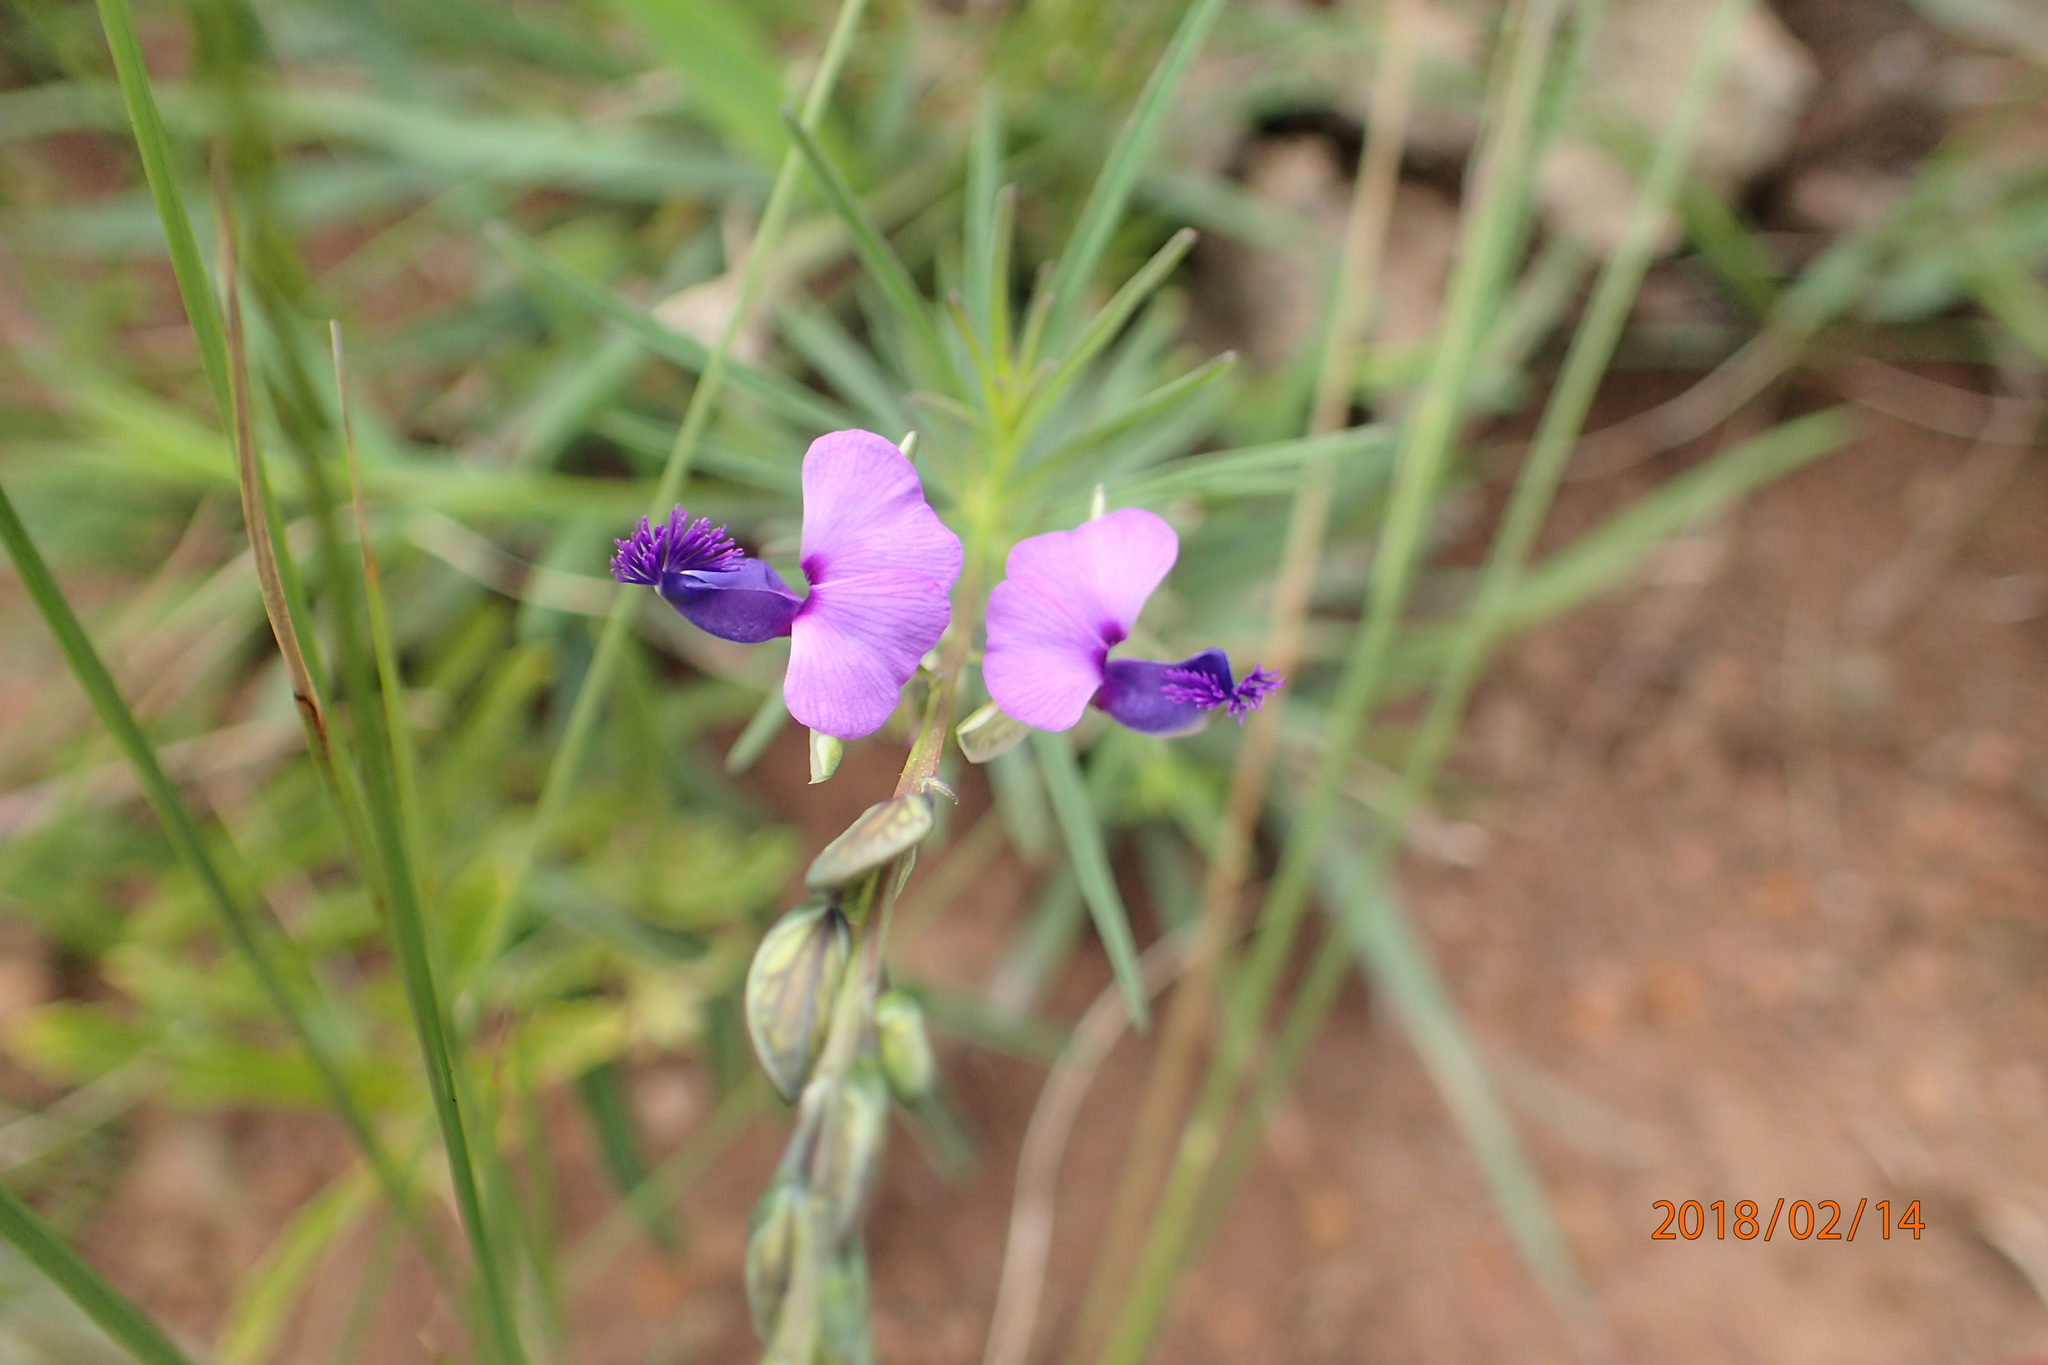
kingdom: Plantae
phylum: Tracheophyta
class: Magnoliopsida
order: Fabales
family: Polygalaceae
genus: Polygala
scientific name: Polygala rehmannii
